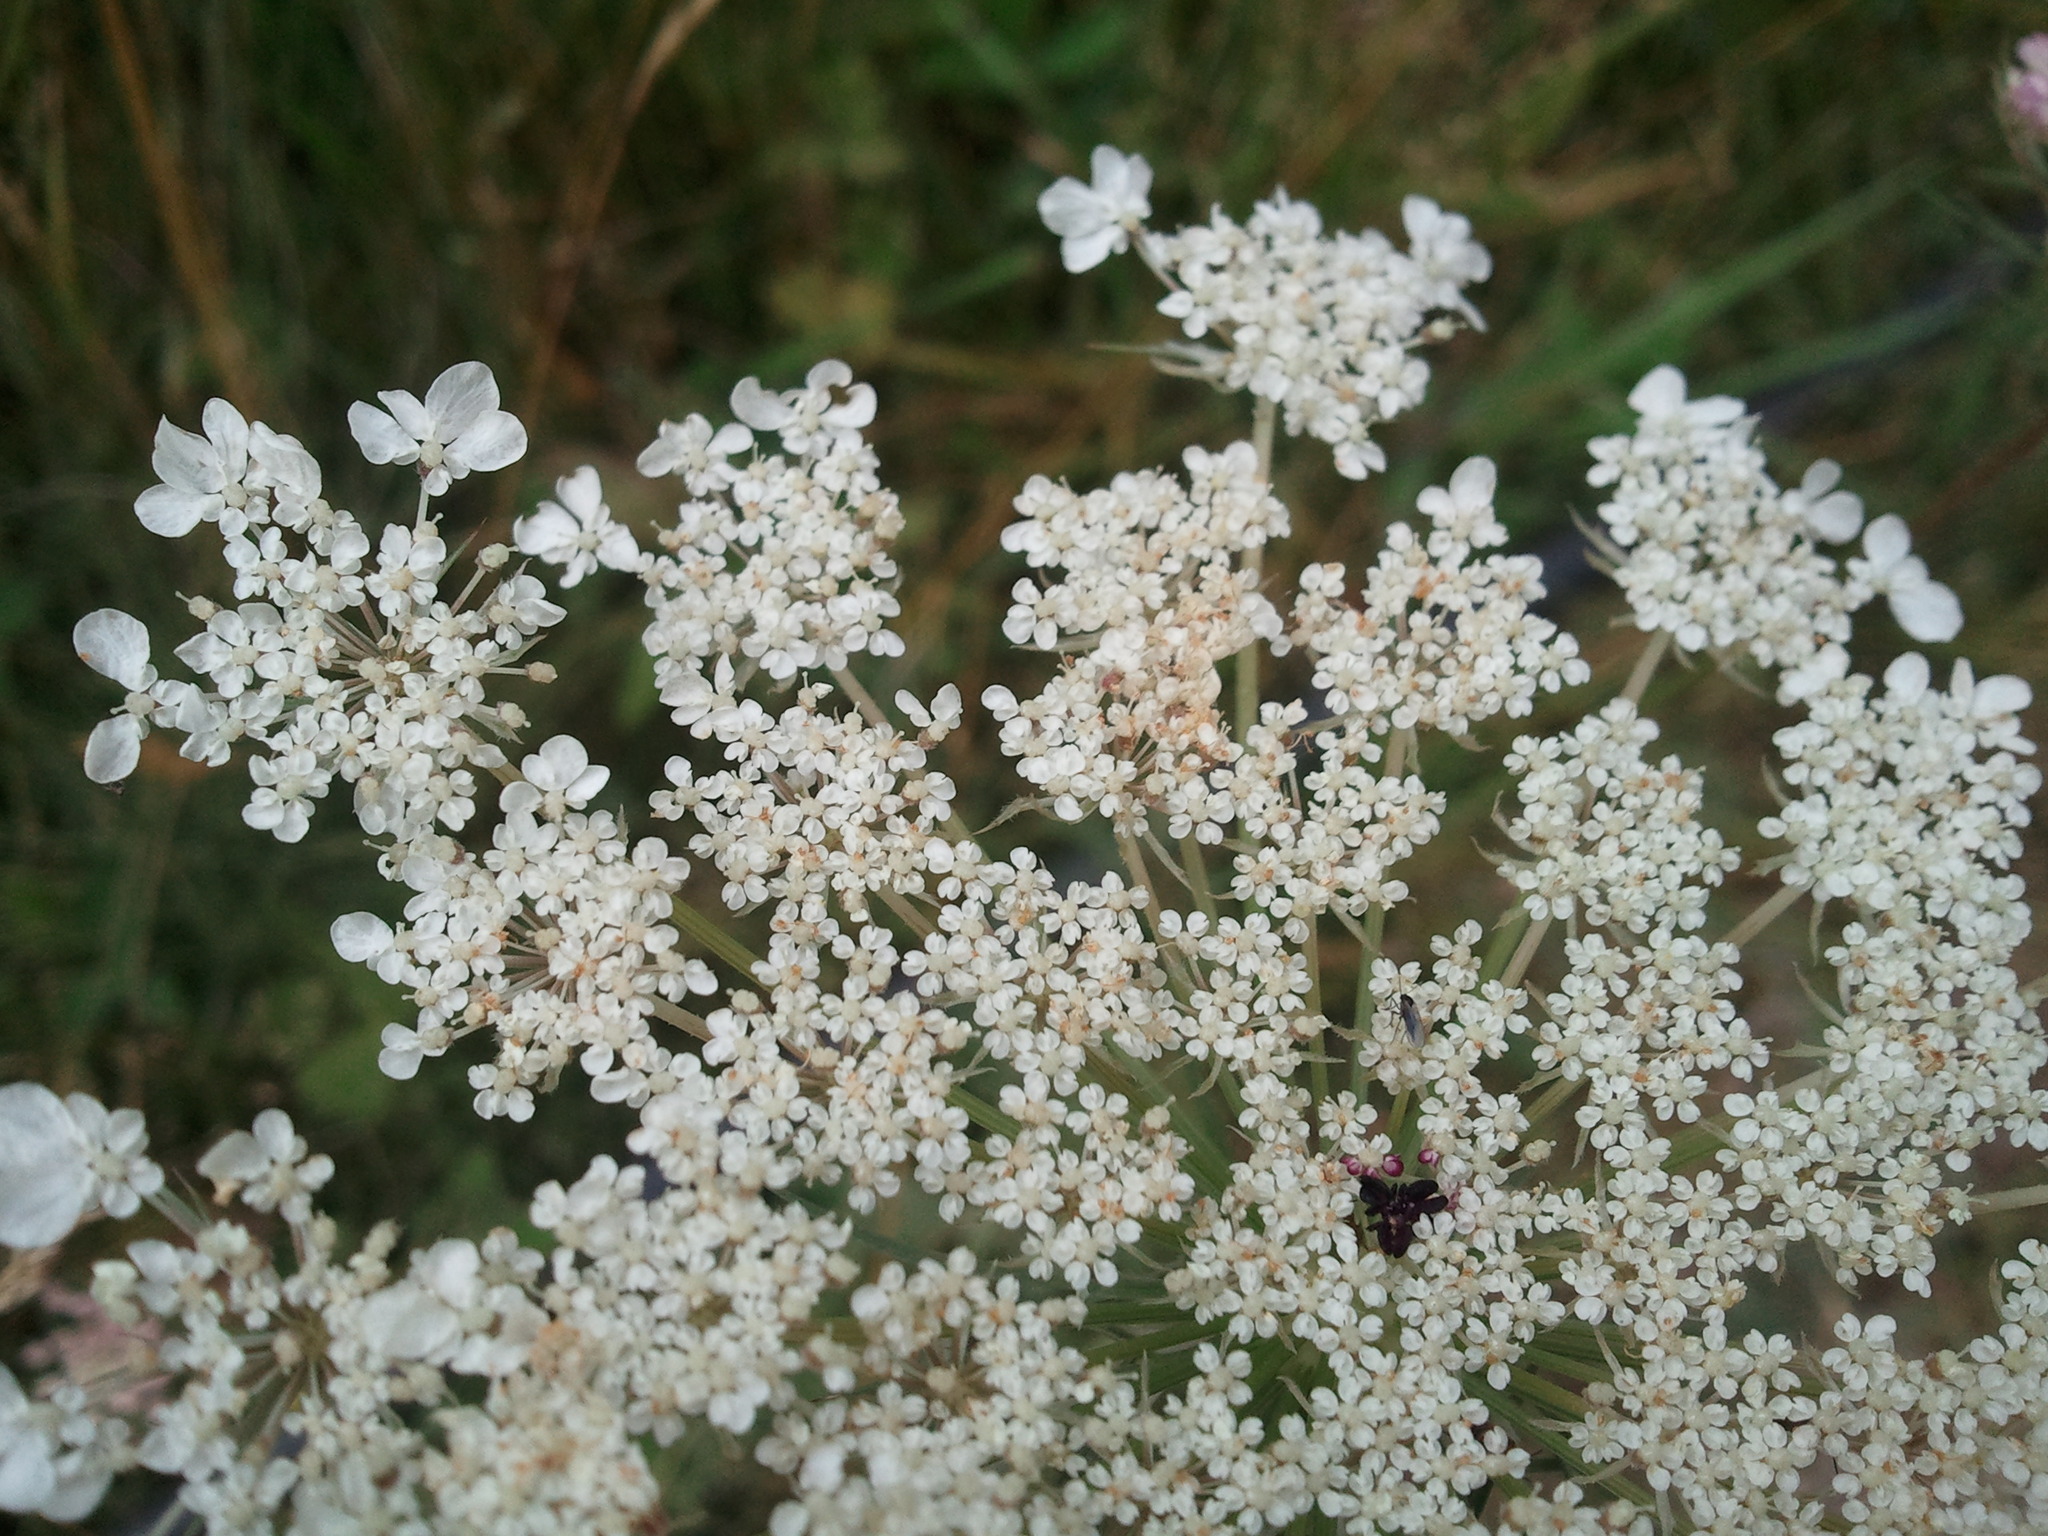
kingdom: Plantae
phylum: Tracheophyta
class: Magnoliopsida
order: Apiales
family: Apiaceae
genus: Daucus
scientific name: Daucus carota
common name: Wild carrot
